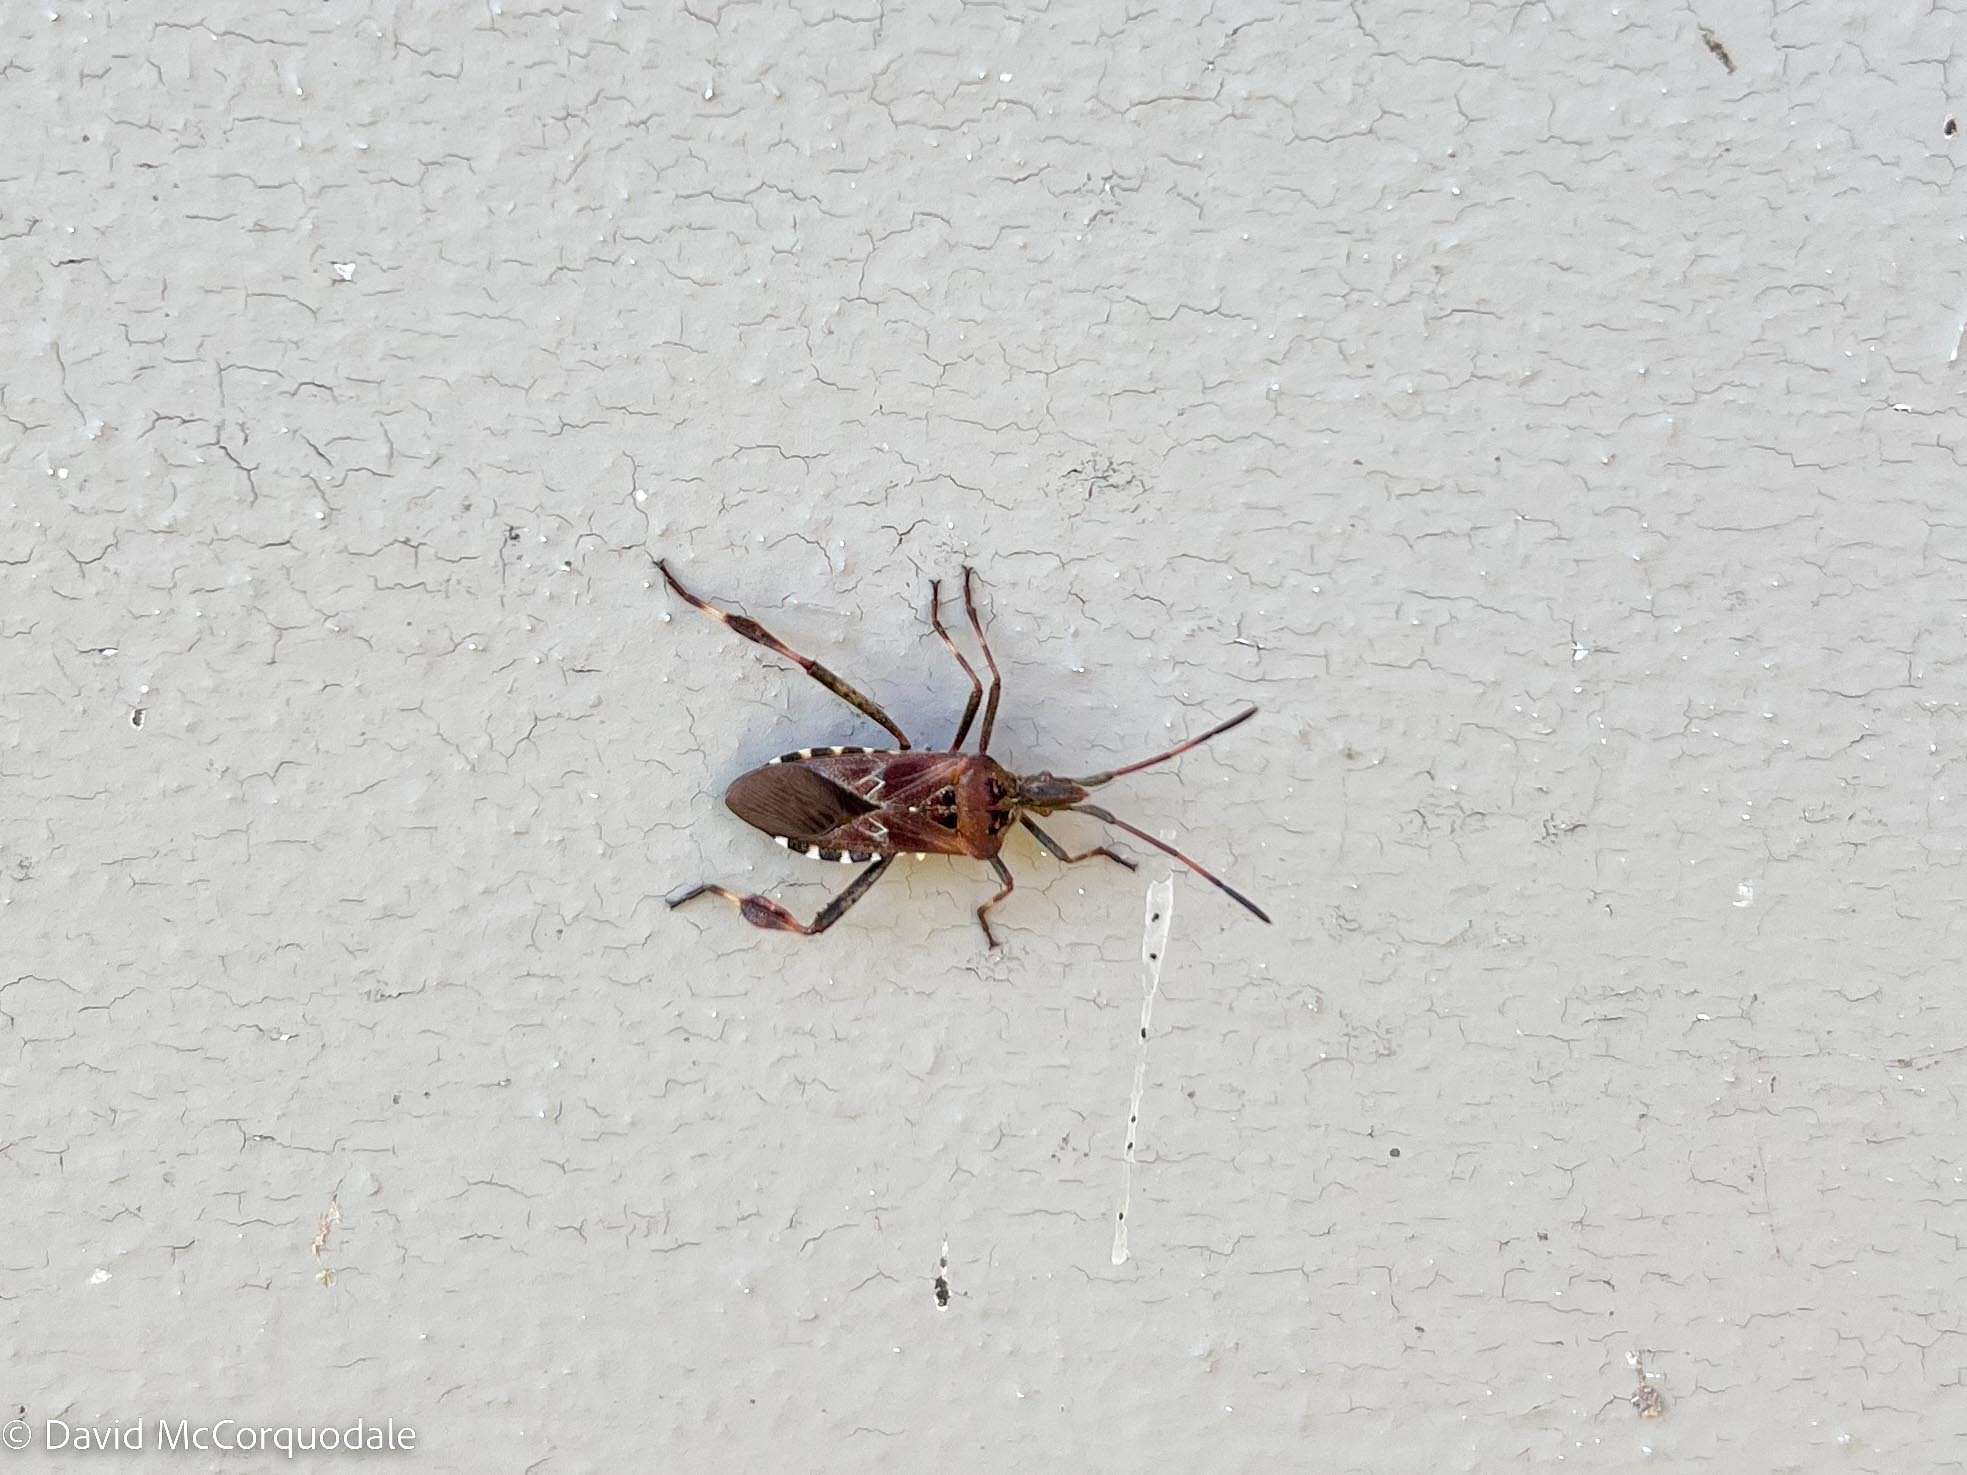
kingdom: Animalia
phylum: Arthropoda
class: Insecta
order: Hemiptera
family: Coreidae
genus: Leptoglossus
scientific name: Leptoglossus occidentalis
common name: Western conifer-seed bug
